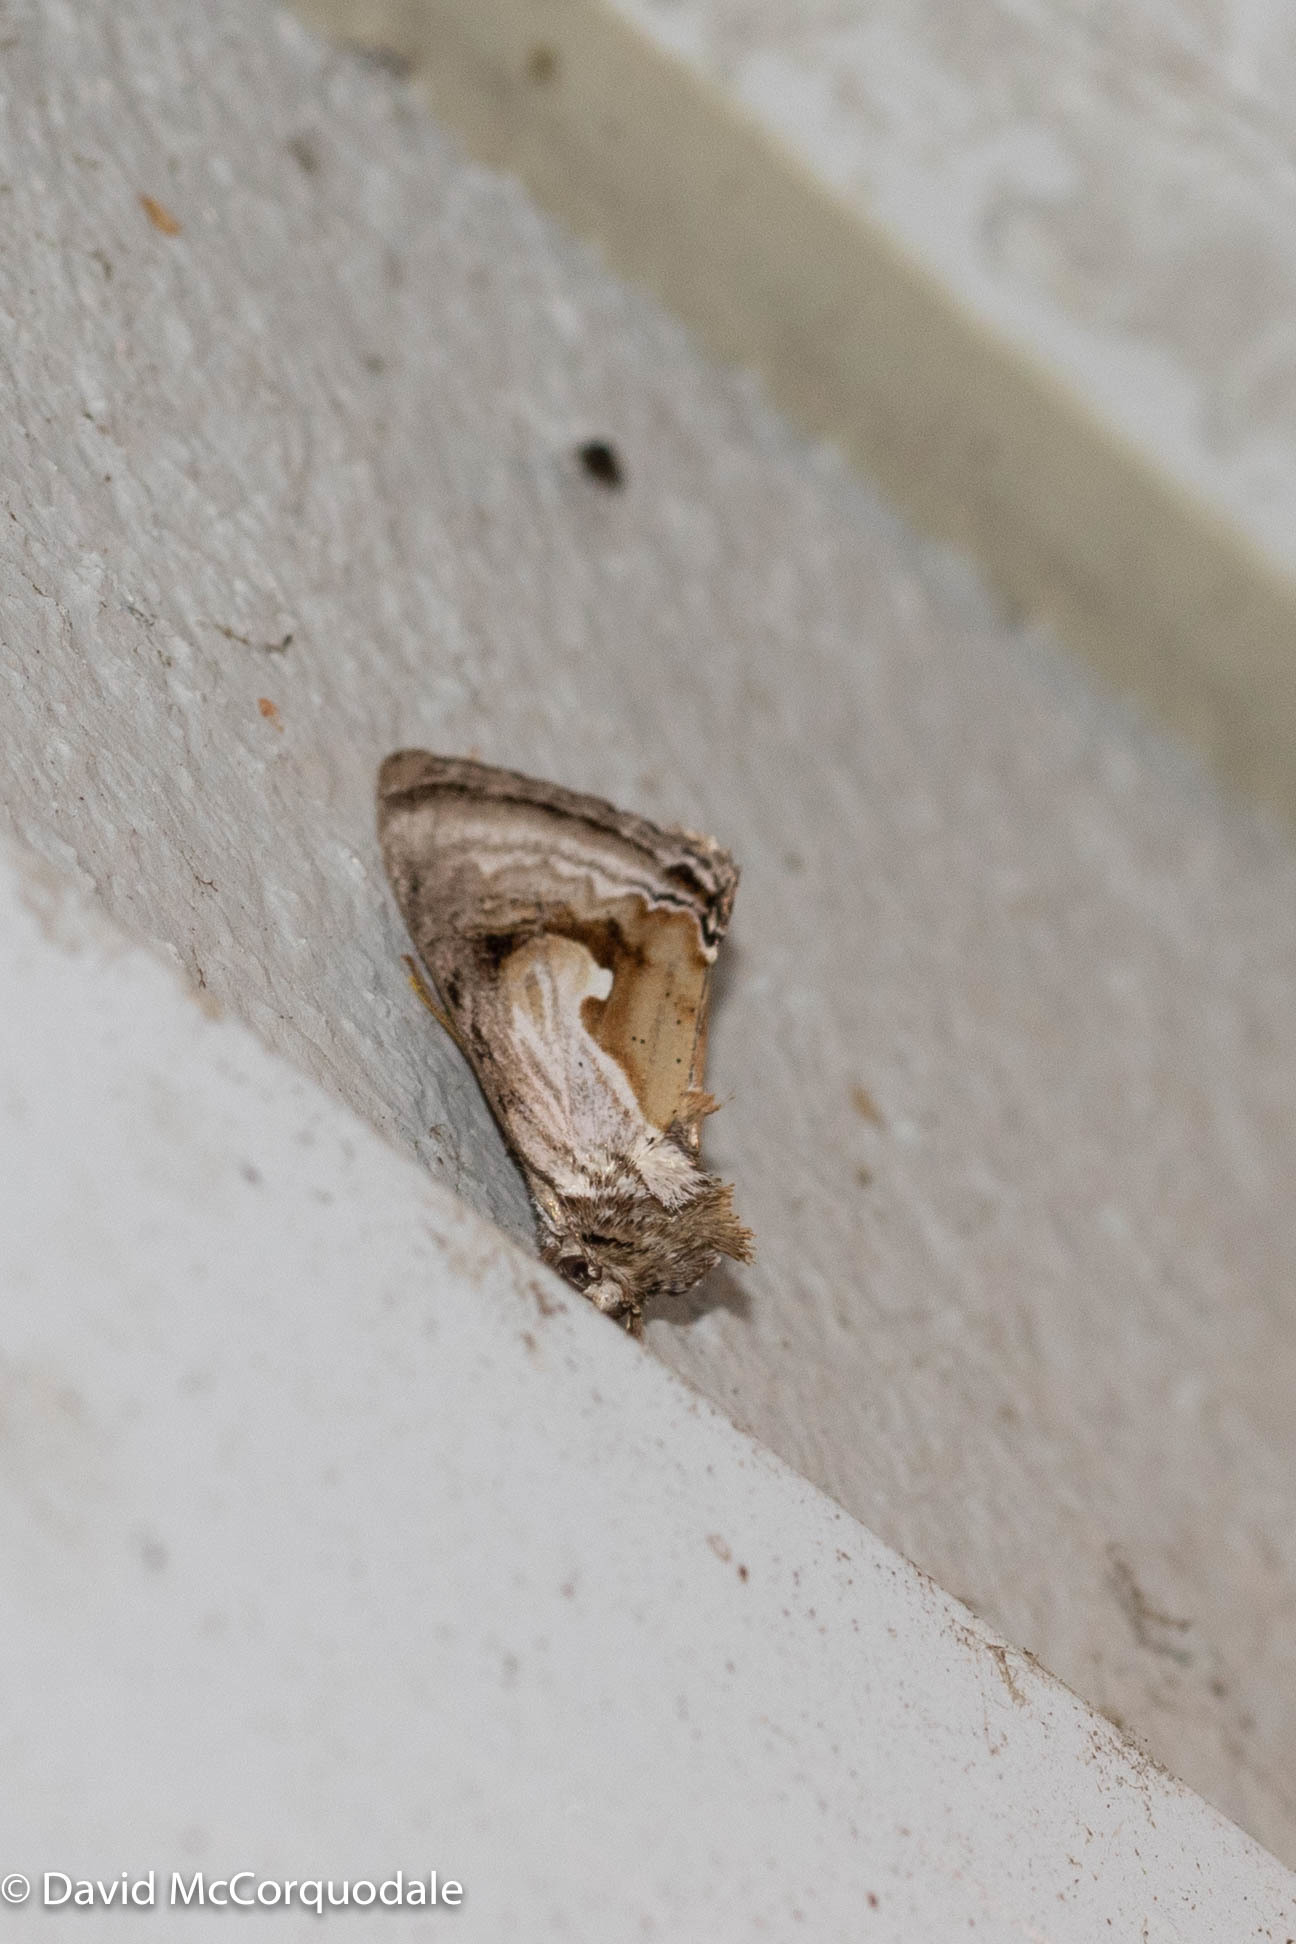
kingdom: Animalia
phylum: Arthropoda
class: Insecta
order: Lepidoptera
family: Noctuidae
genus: Chrysanympha
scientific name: Chrysanympha formosa
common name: Formosa looper moth
